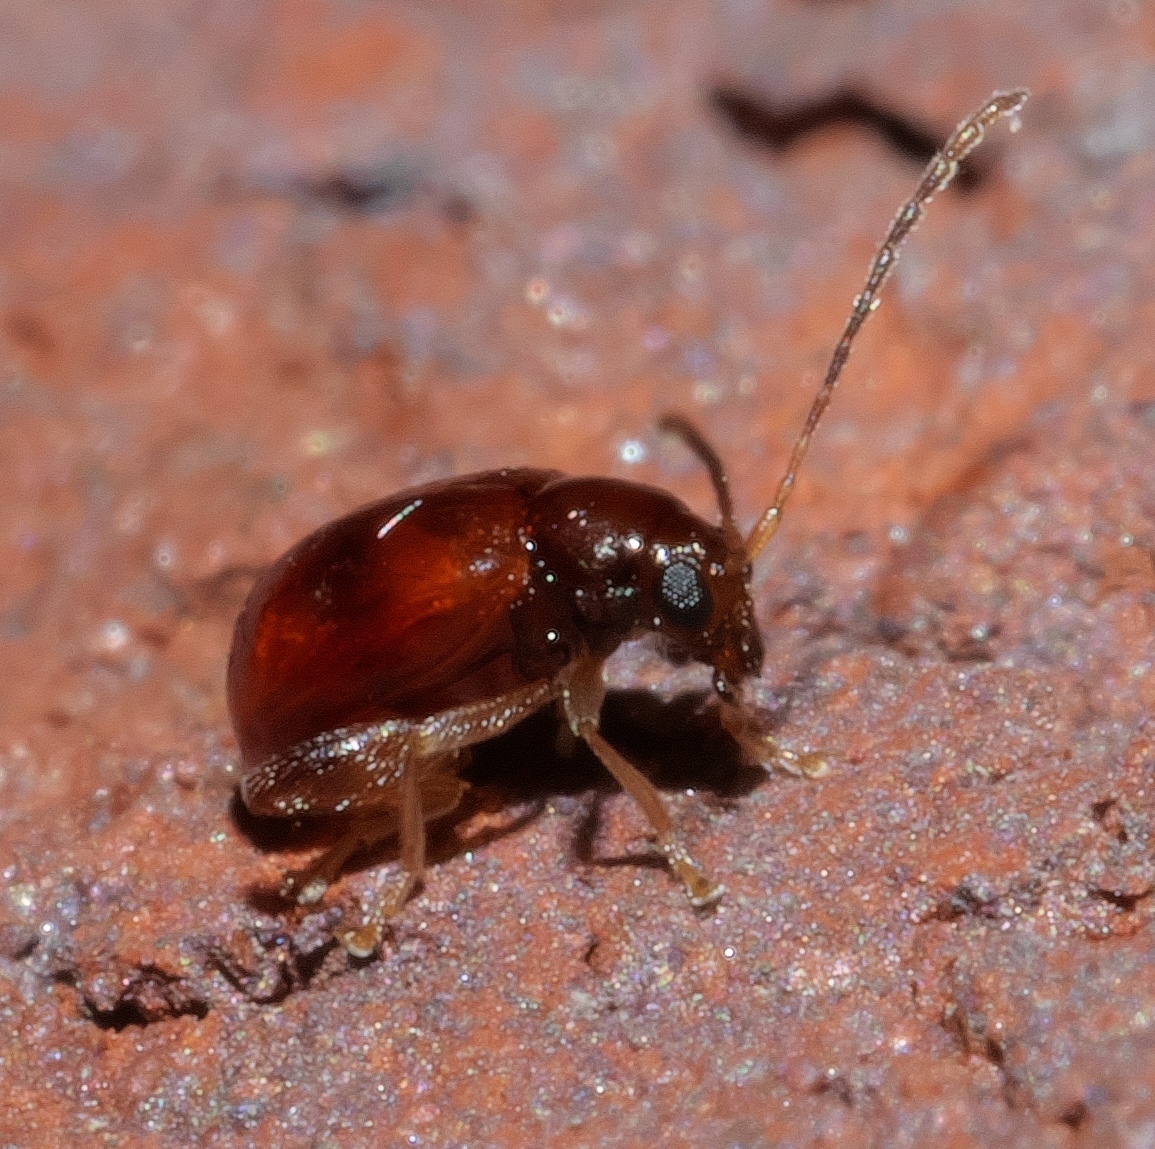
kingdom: Animalia
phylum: Arthropoda
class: Insecta
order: Coleoptera
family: Chrysomelidae
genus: Longitarsus
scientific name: Longitarsus varicornis
